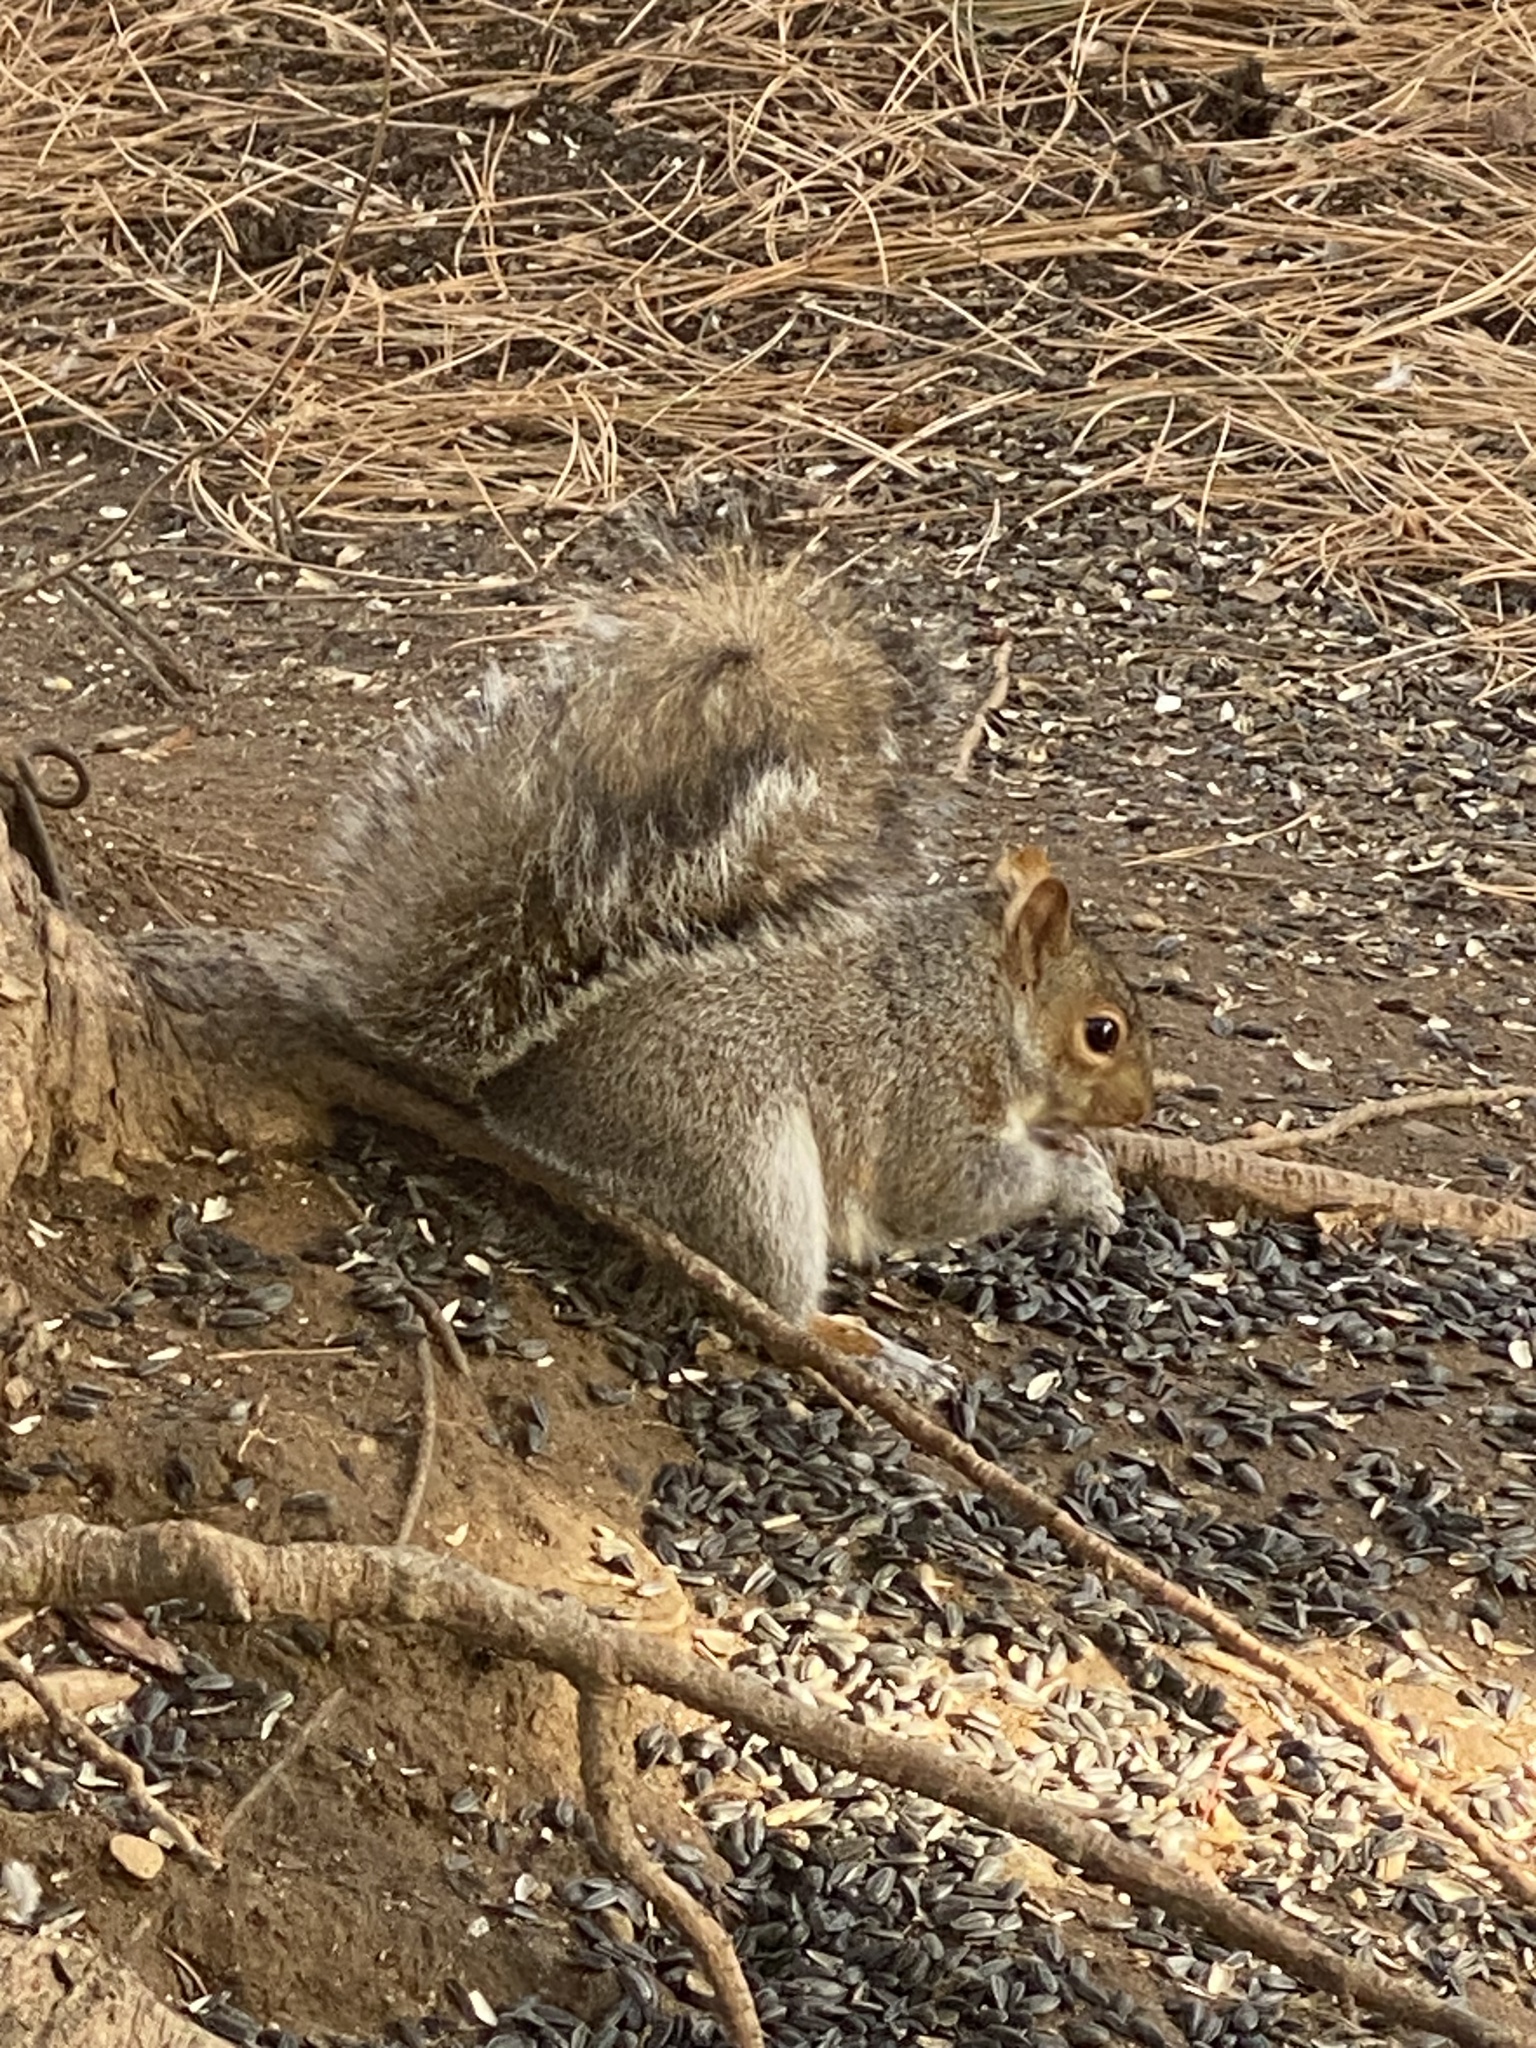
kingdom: Animalia
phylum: Chordata
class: Mammalia
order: Rodentia
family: Sciuridae
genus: Sciurus
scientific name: Sciurus carolinensis
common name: Eastern gray squirrel
